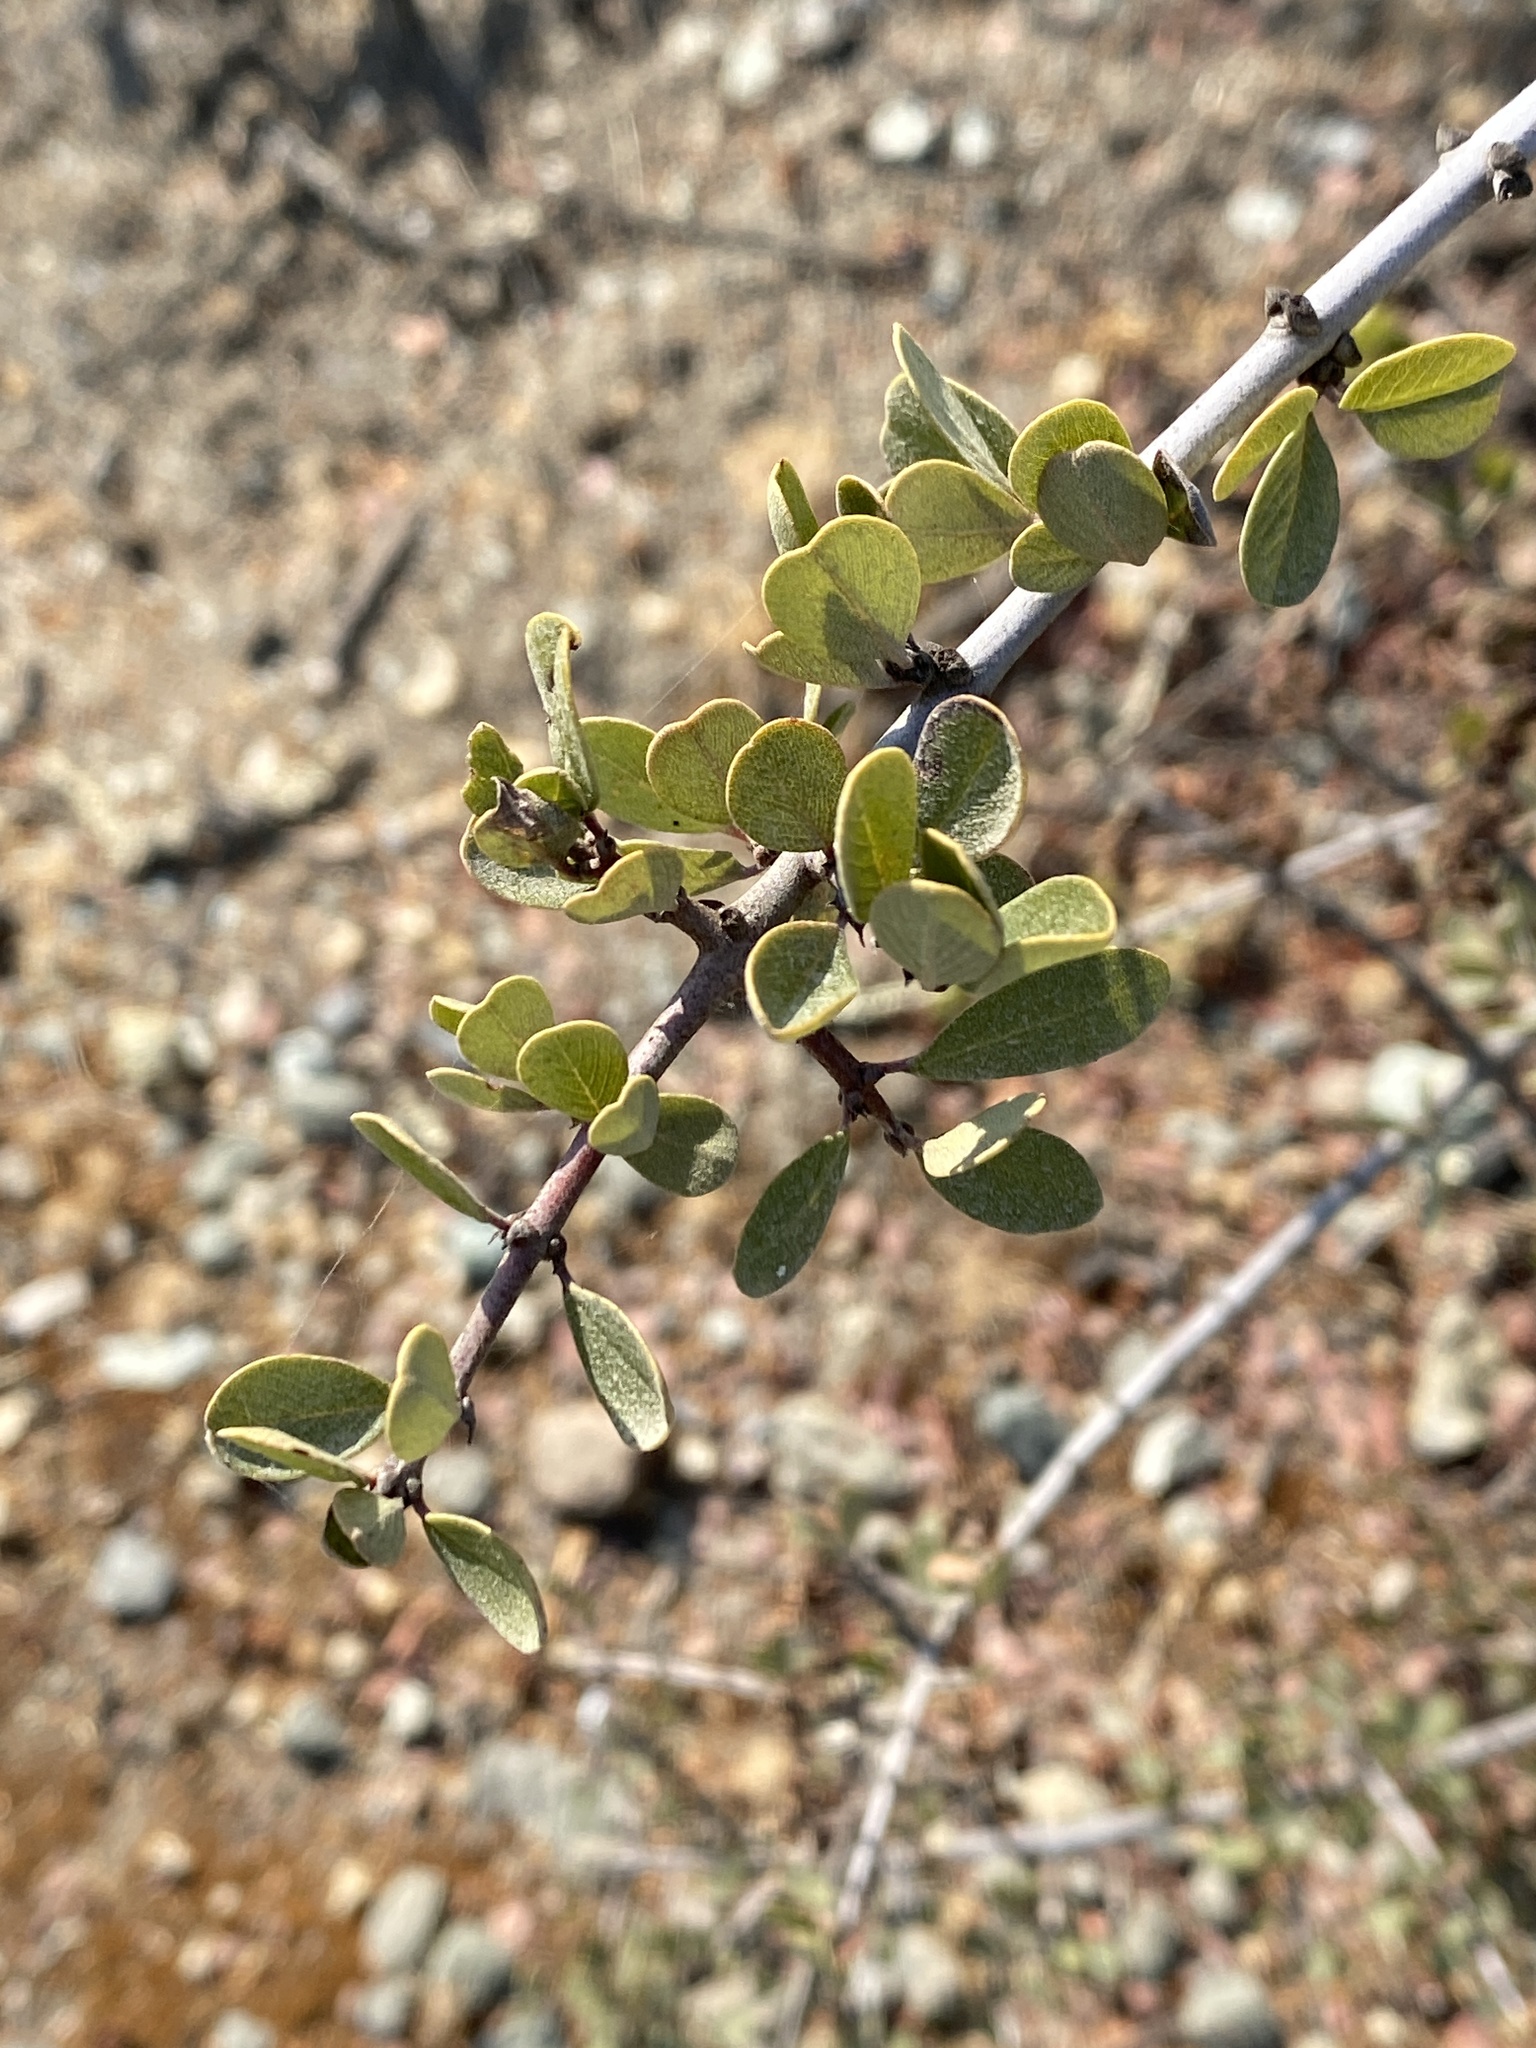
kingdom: Plantae
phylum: Tracheophyta
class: Magnoliopsida
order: Rosales
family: Rhamnaceae
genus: Ceanothus
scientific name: Ceanothus cuneatus
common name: Cuneate ceanothus
